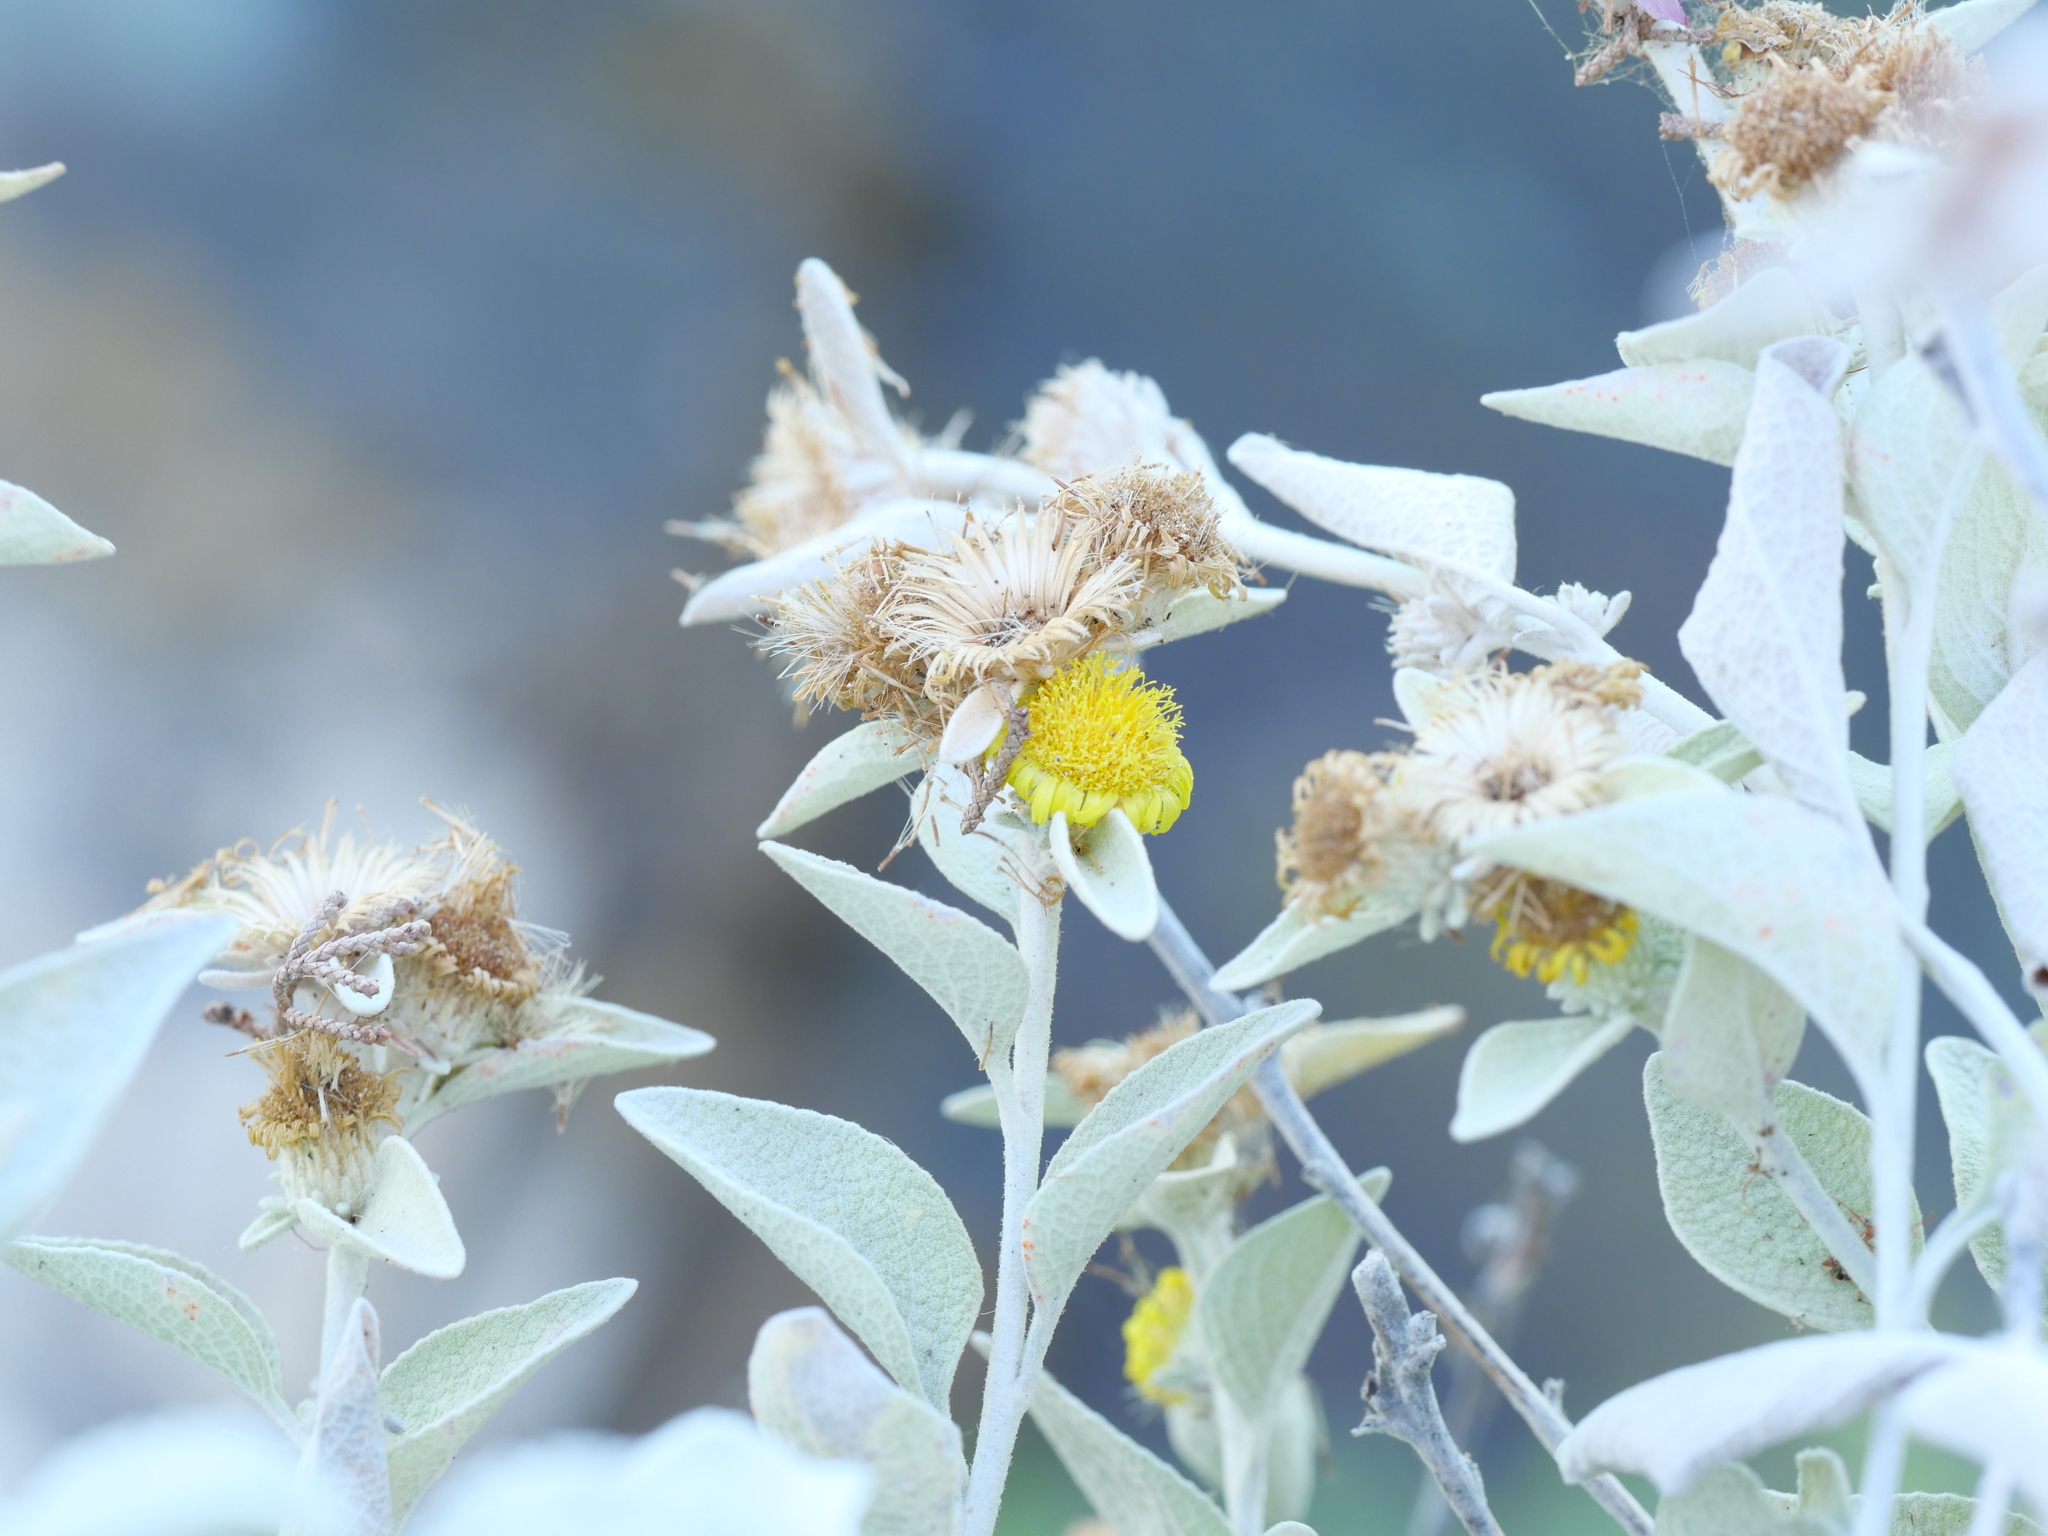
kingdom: Plantae
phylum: Tracheophyta
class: Magnoliopsida
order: Asterales
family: Asteraceae
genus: Pentanema
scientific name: Pentanema verbascifolium
